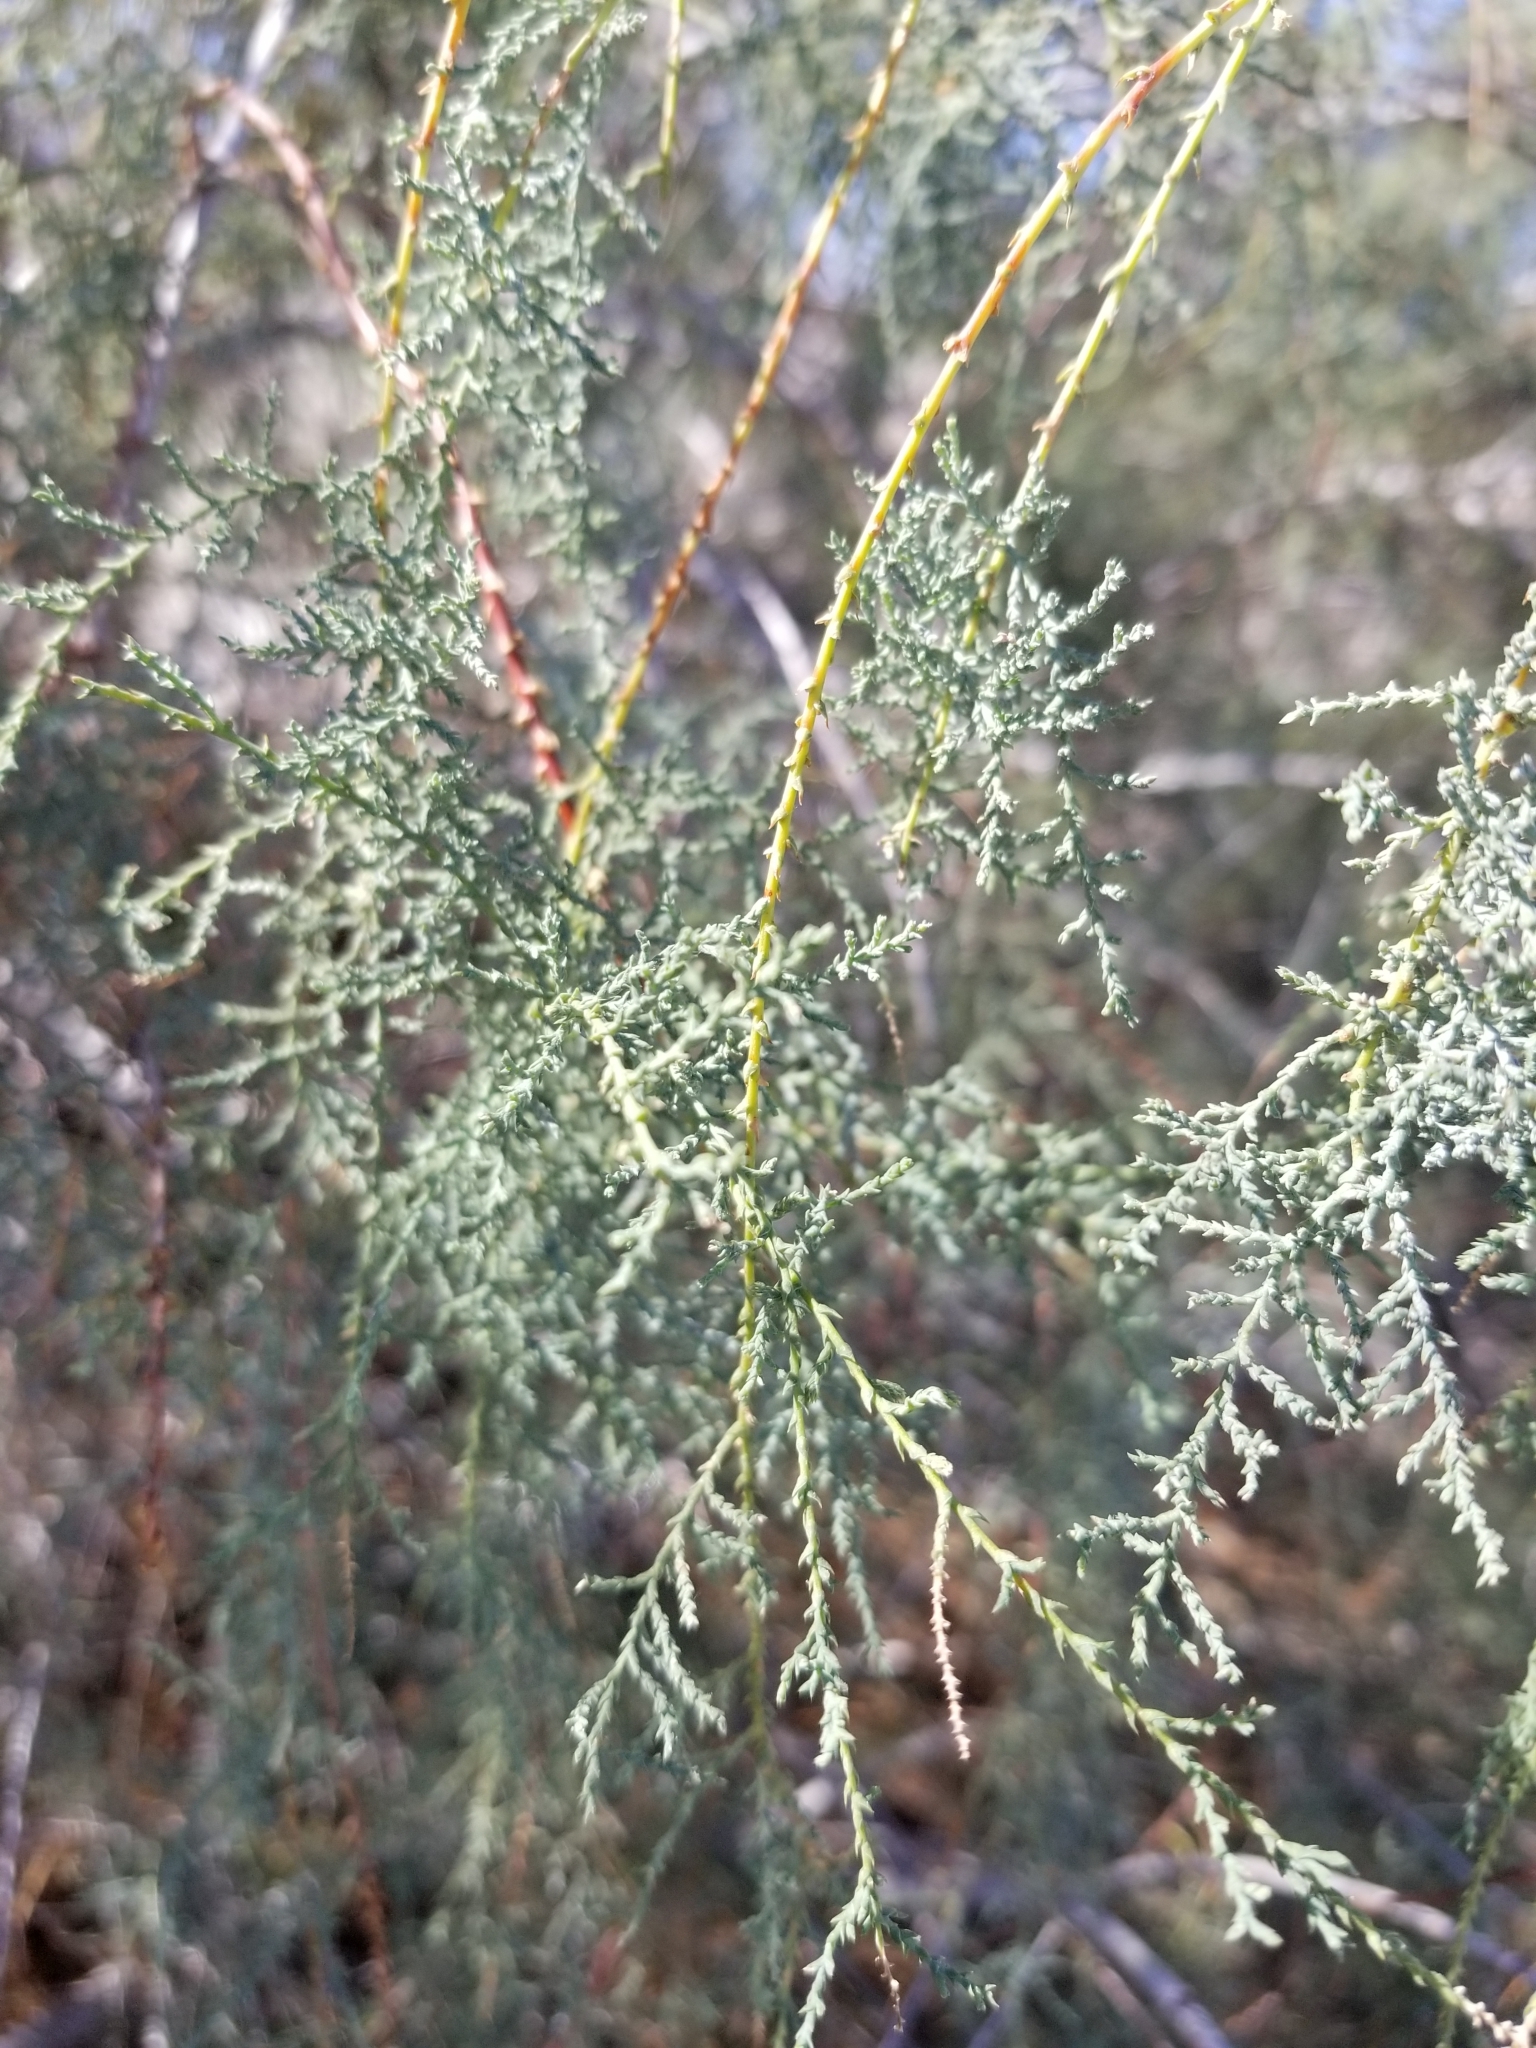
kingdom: Plantae
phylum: Tracheophyta
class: Magnoliopsida
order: Caryophyllales
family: Tamaricaceae
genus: Tamarix
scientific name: Tamarix ramosissima
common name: Pink tamarisk
